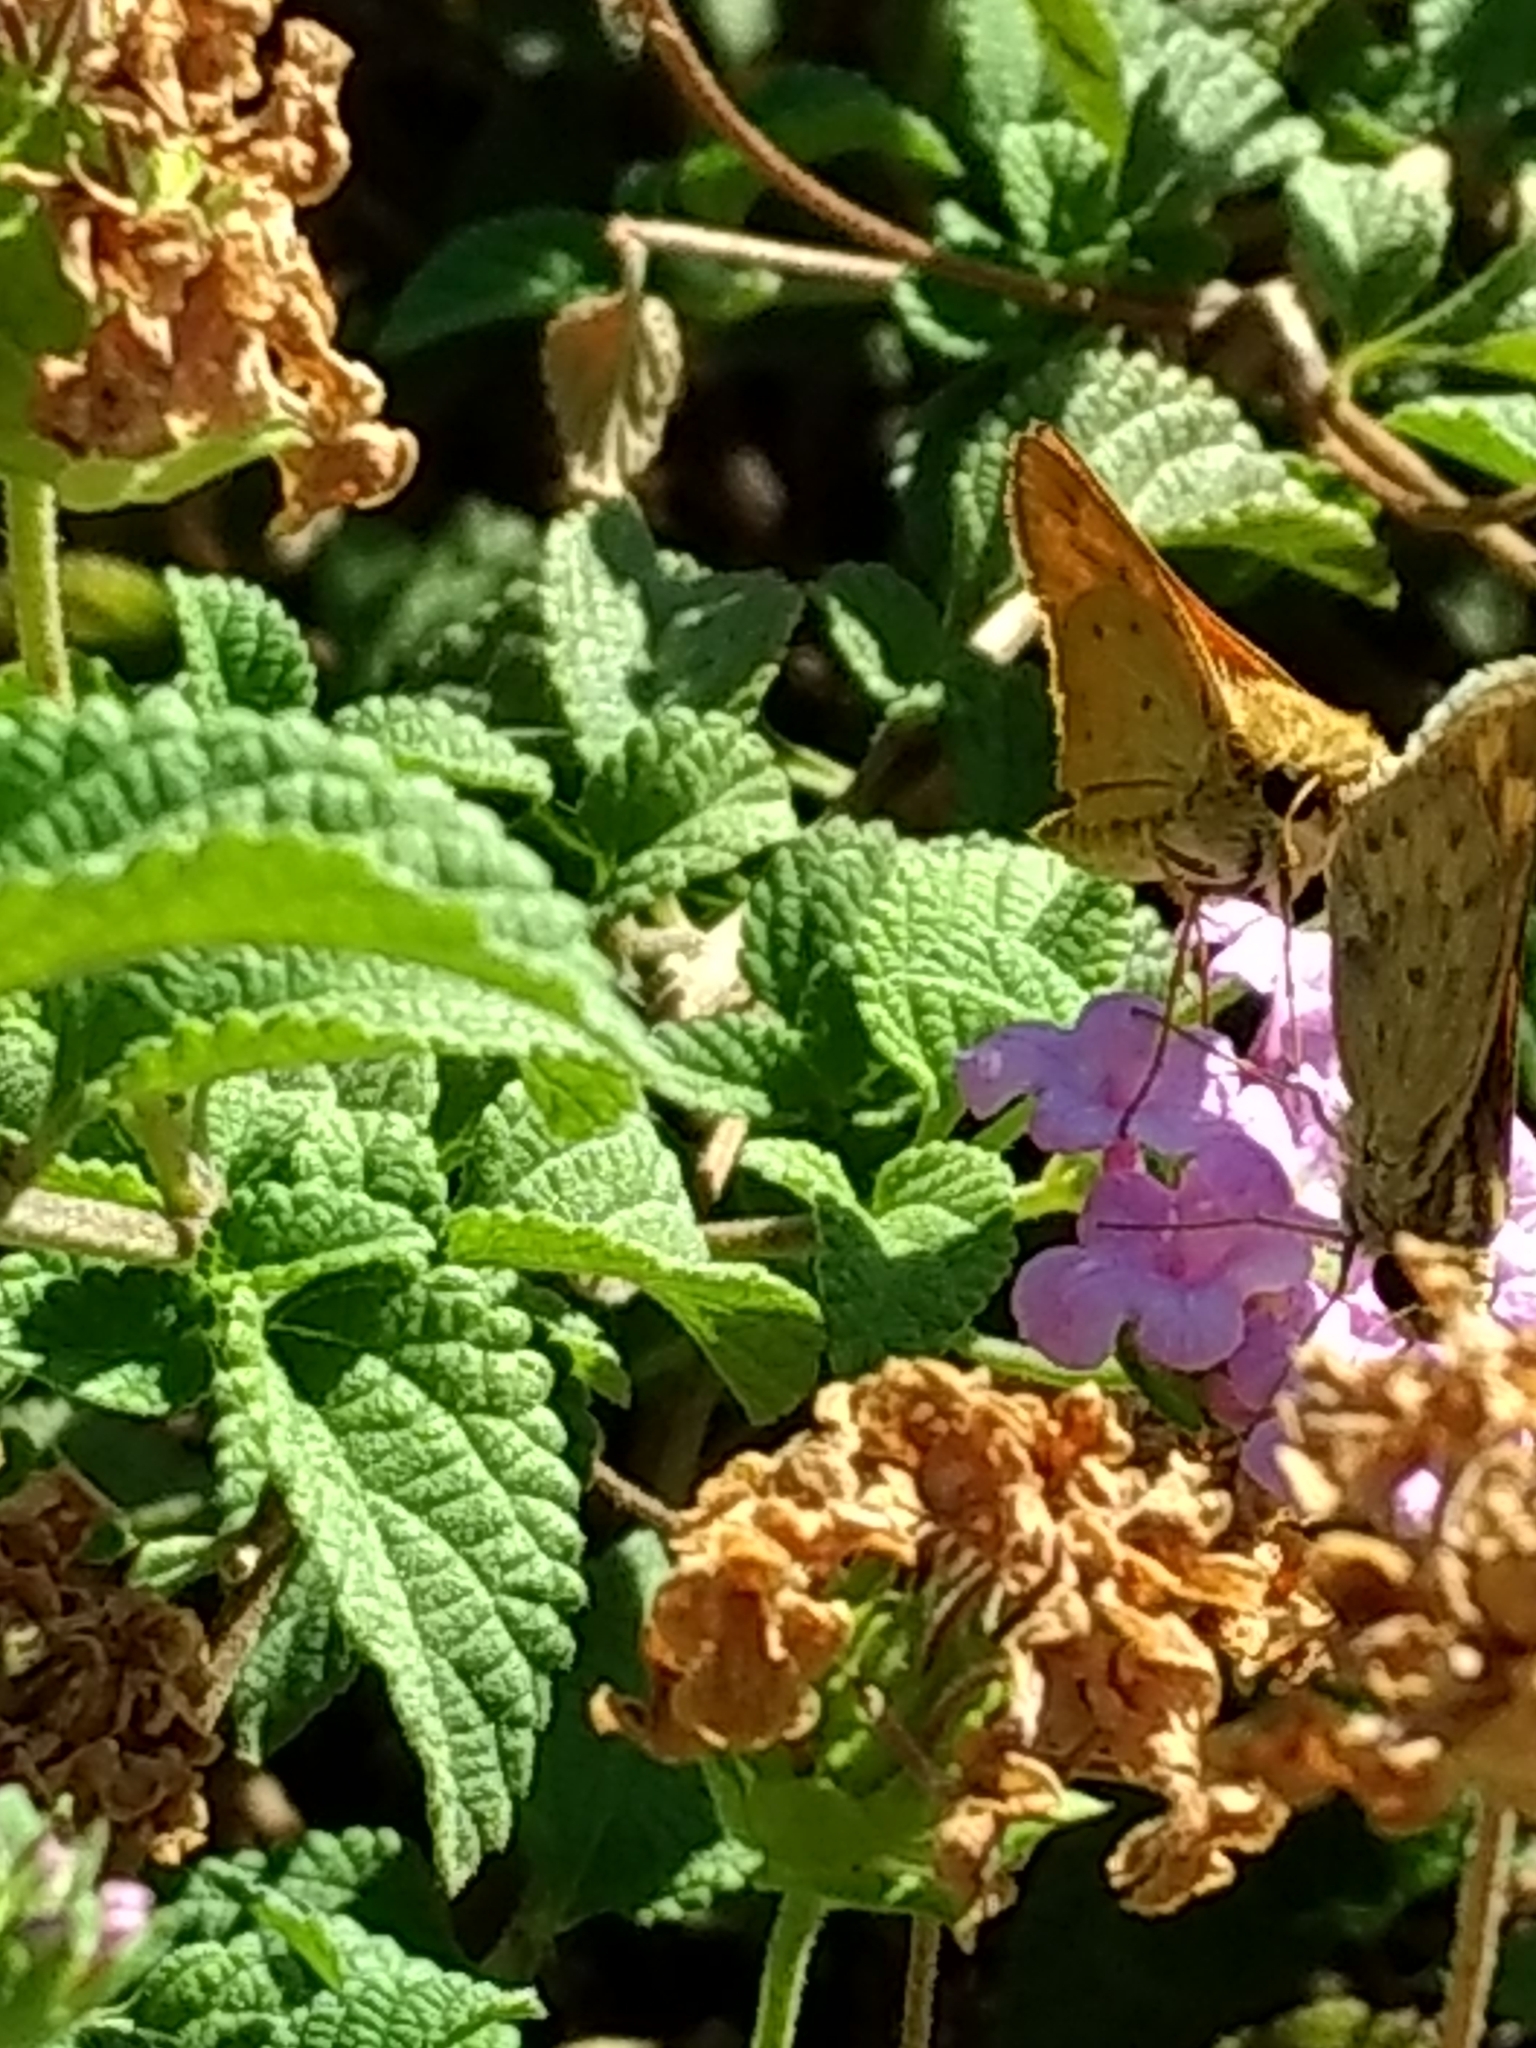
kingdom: Animalia
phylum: Arthropoda
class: Insecta
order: Lepidoptera
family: Hesperiidae
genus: Hylephila
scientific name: Hylephila phyleus
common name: Fiery skipper
